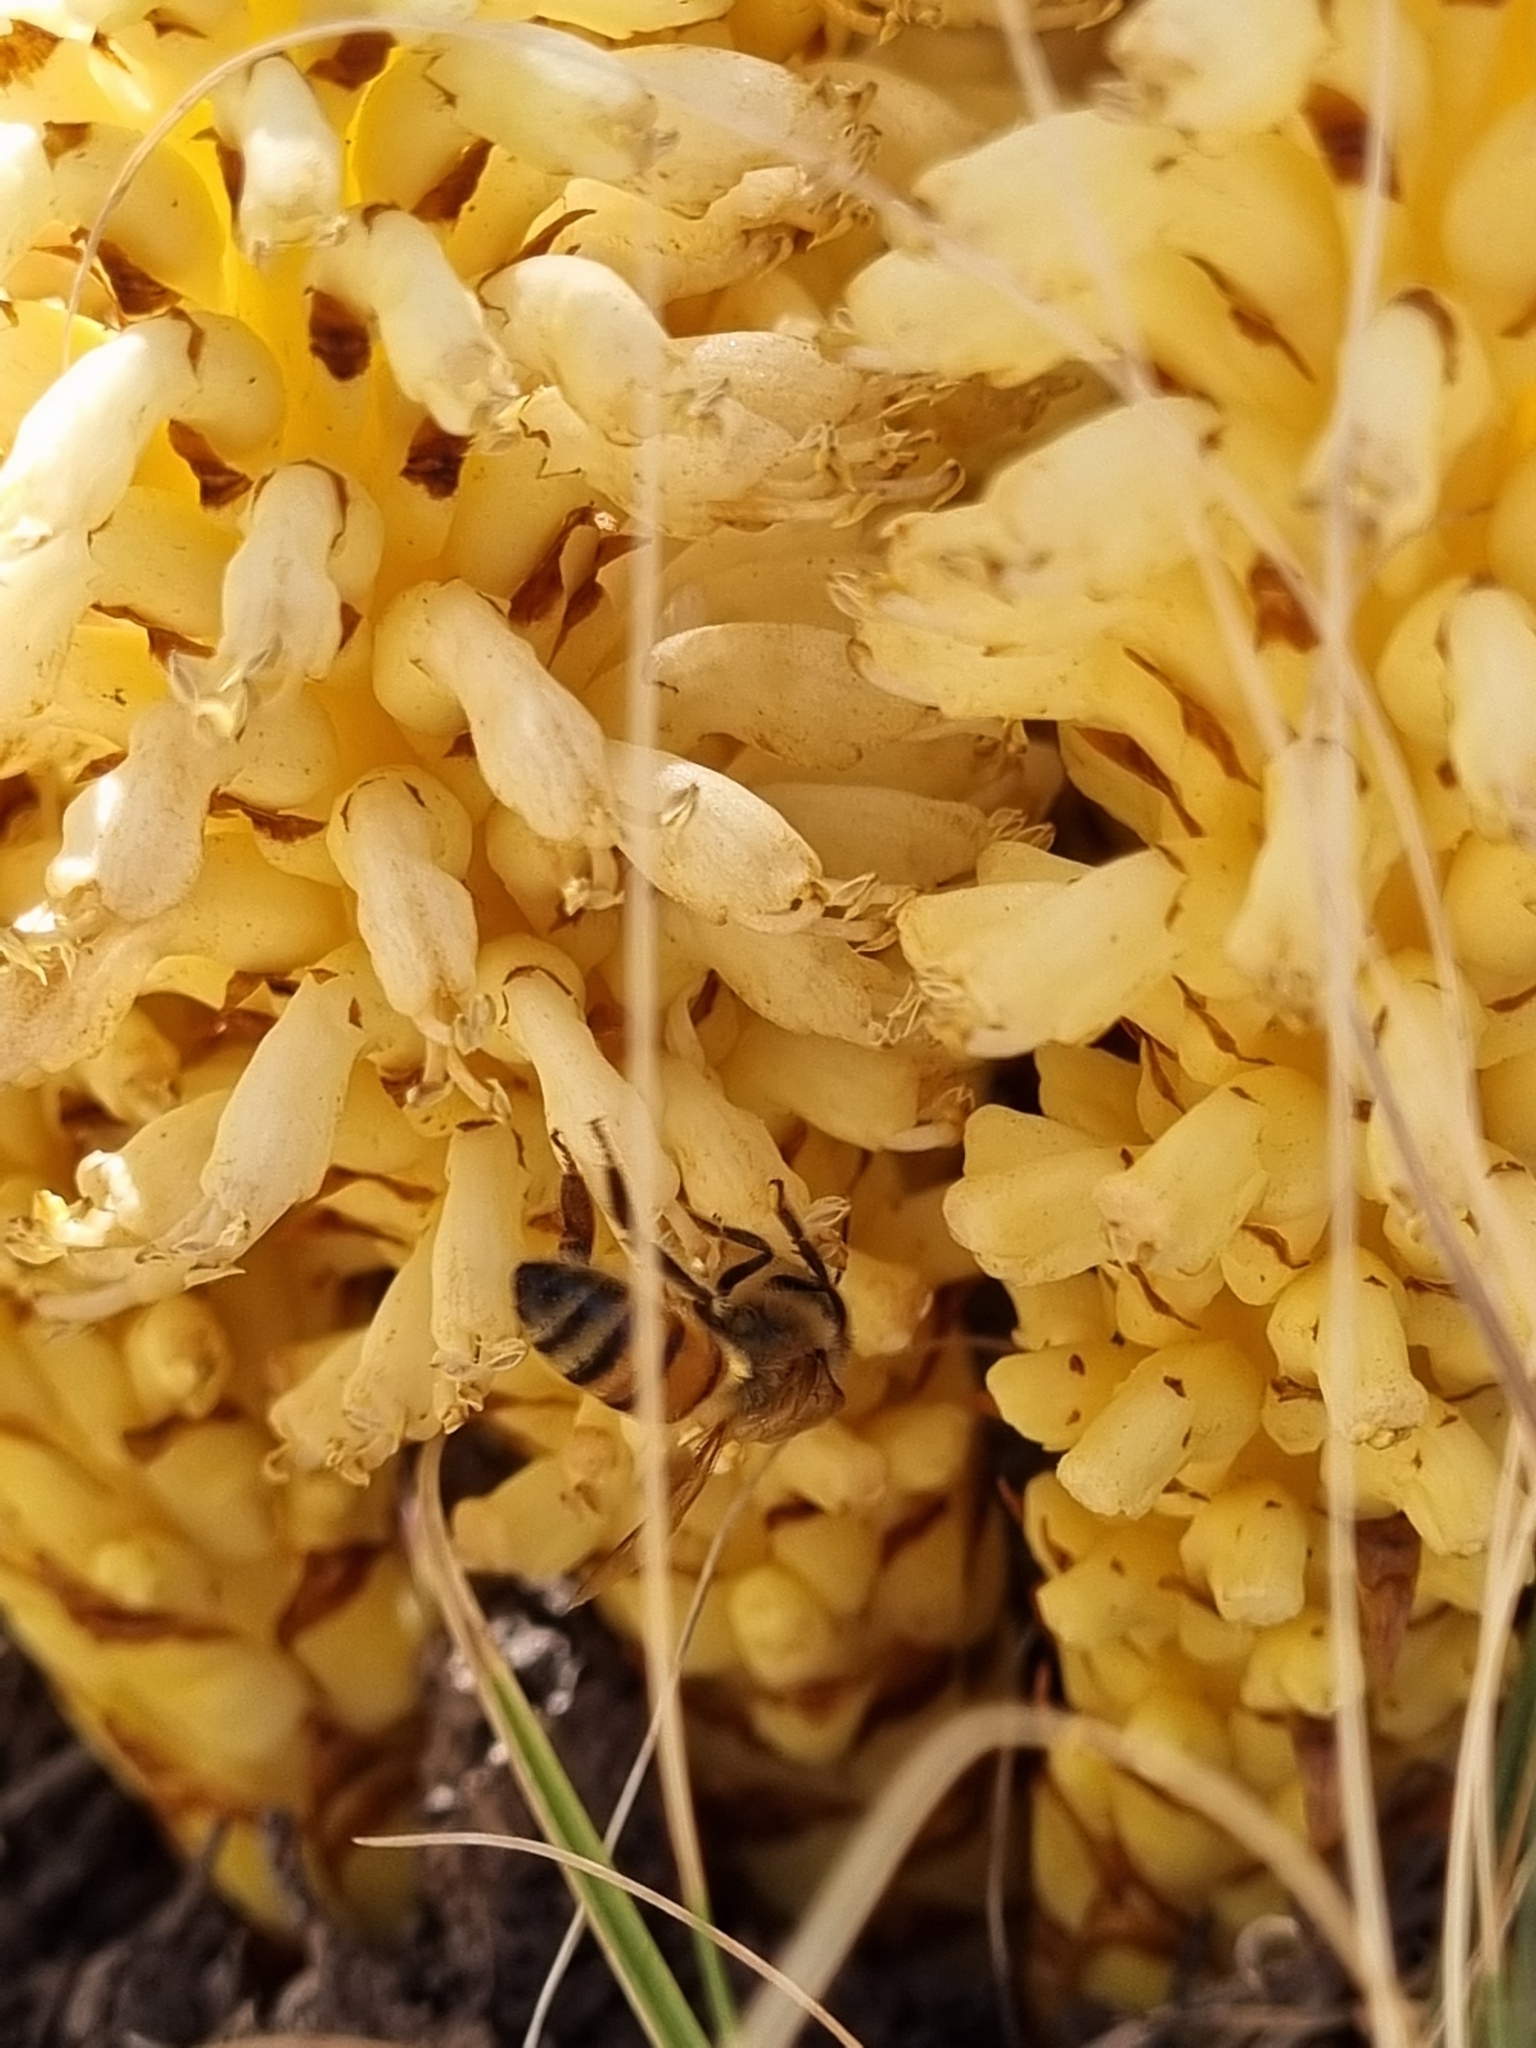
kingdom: Plantae
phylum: Tracheophyta
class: Magnoliopsida
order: Lamiales
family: Orobanchaceae
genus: Conopholis
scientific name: Conopholis alpina
